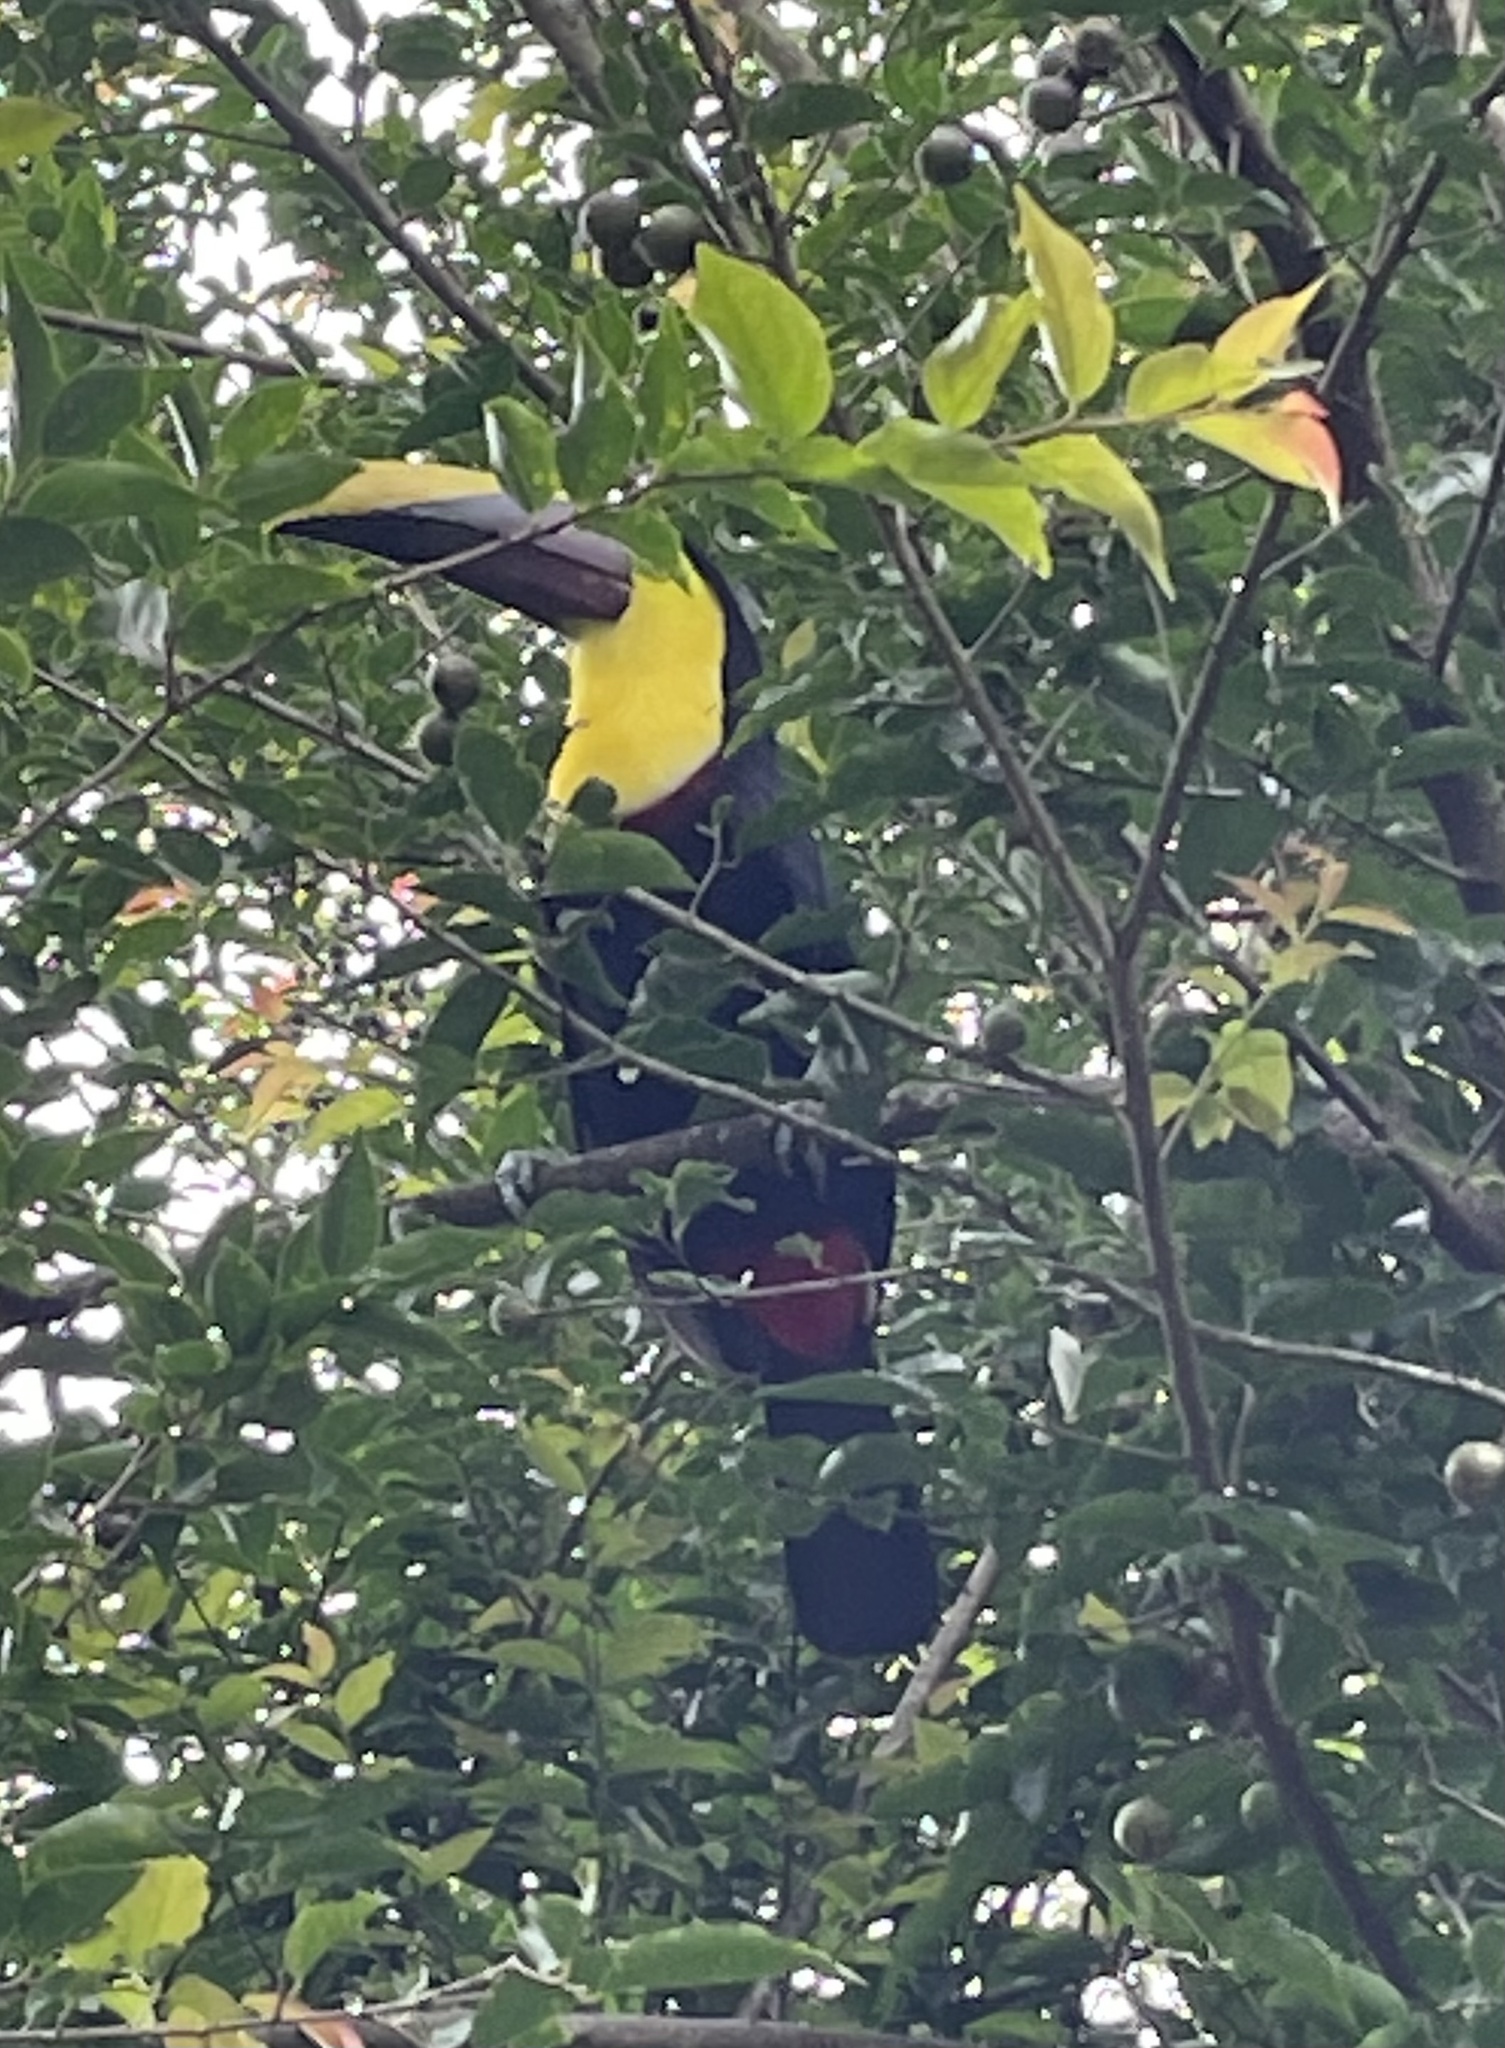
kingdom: Animalia
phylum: Chordata
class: Aves
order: Piciformes
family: Ramphastidae
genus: Ramphastos
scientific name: Ramphastos ambiguus
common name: Yellow-throated toucan
